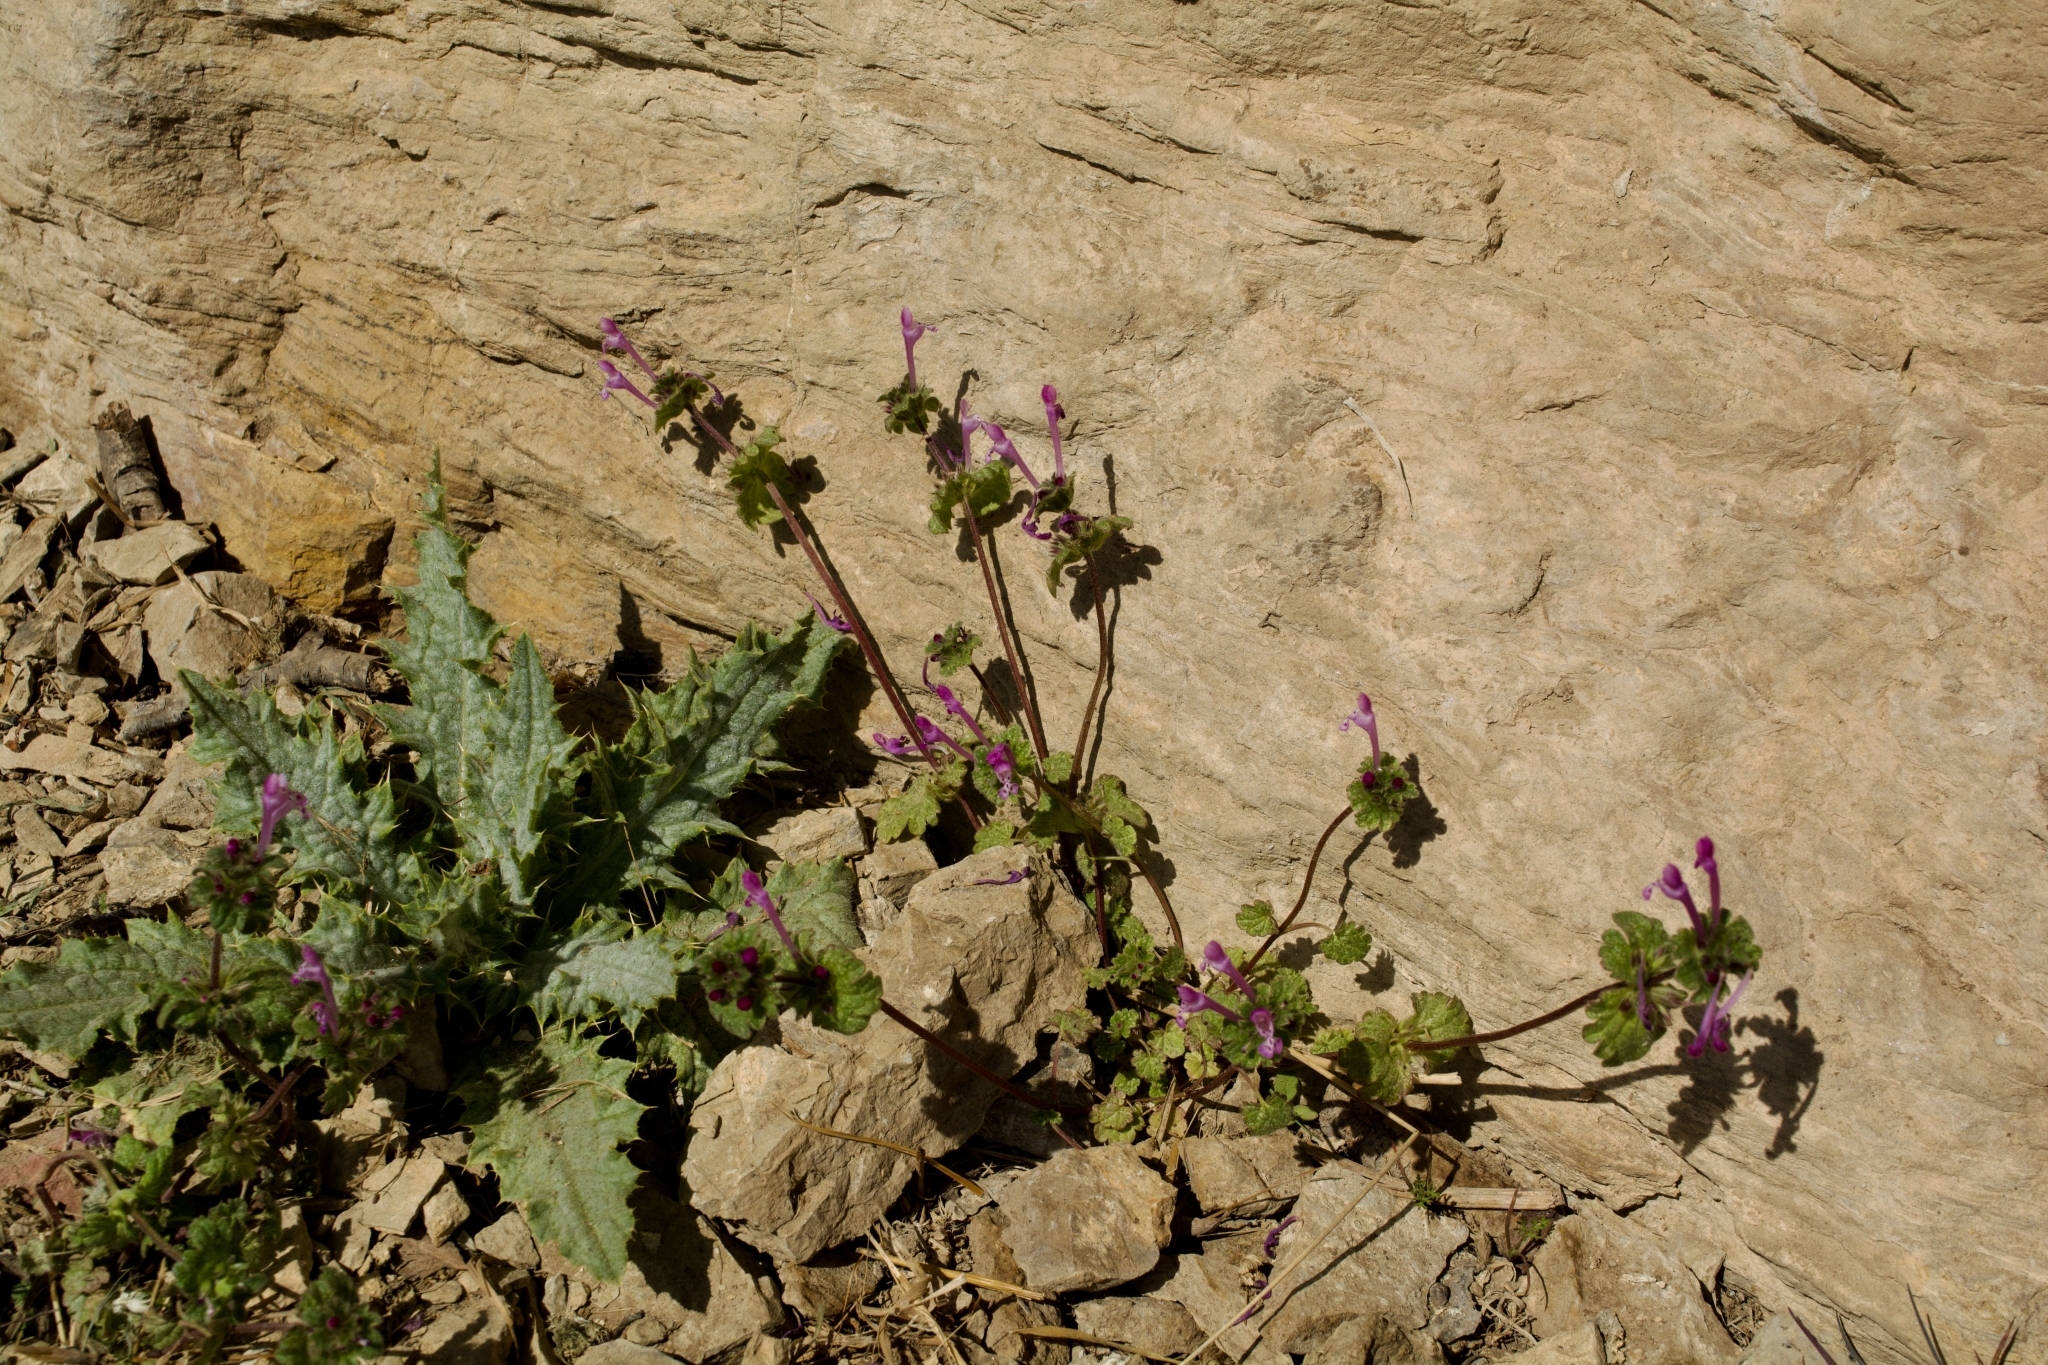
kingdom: Plantae
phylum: Tracheophyta
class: Magnoliopsida
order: Lamiales
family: Lamiaceae
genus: Lamium
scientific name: Lamium amplexicaule
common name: Henbit dead-nettle
